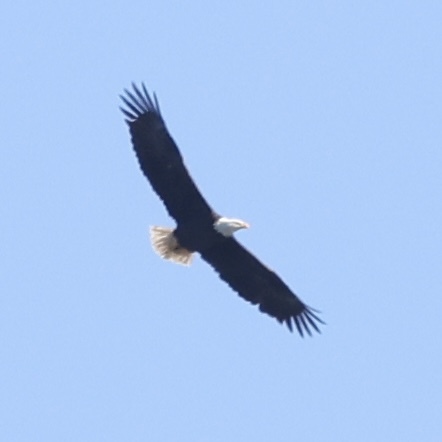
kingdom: Animalia
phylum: Chordata
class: Aves
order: Accipitriformes
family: Accipitridae
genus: Haliaeetus
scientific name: Haliaeetus leucocephalus
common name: Bald eagle
